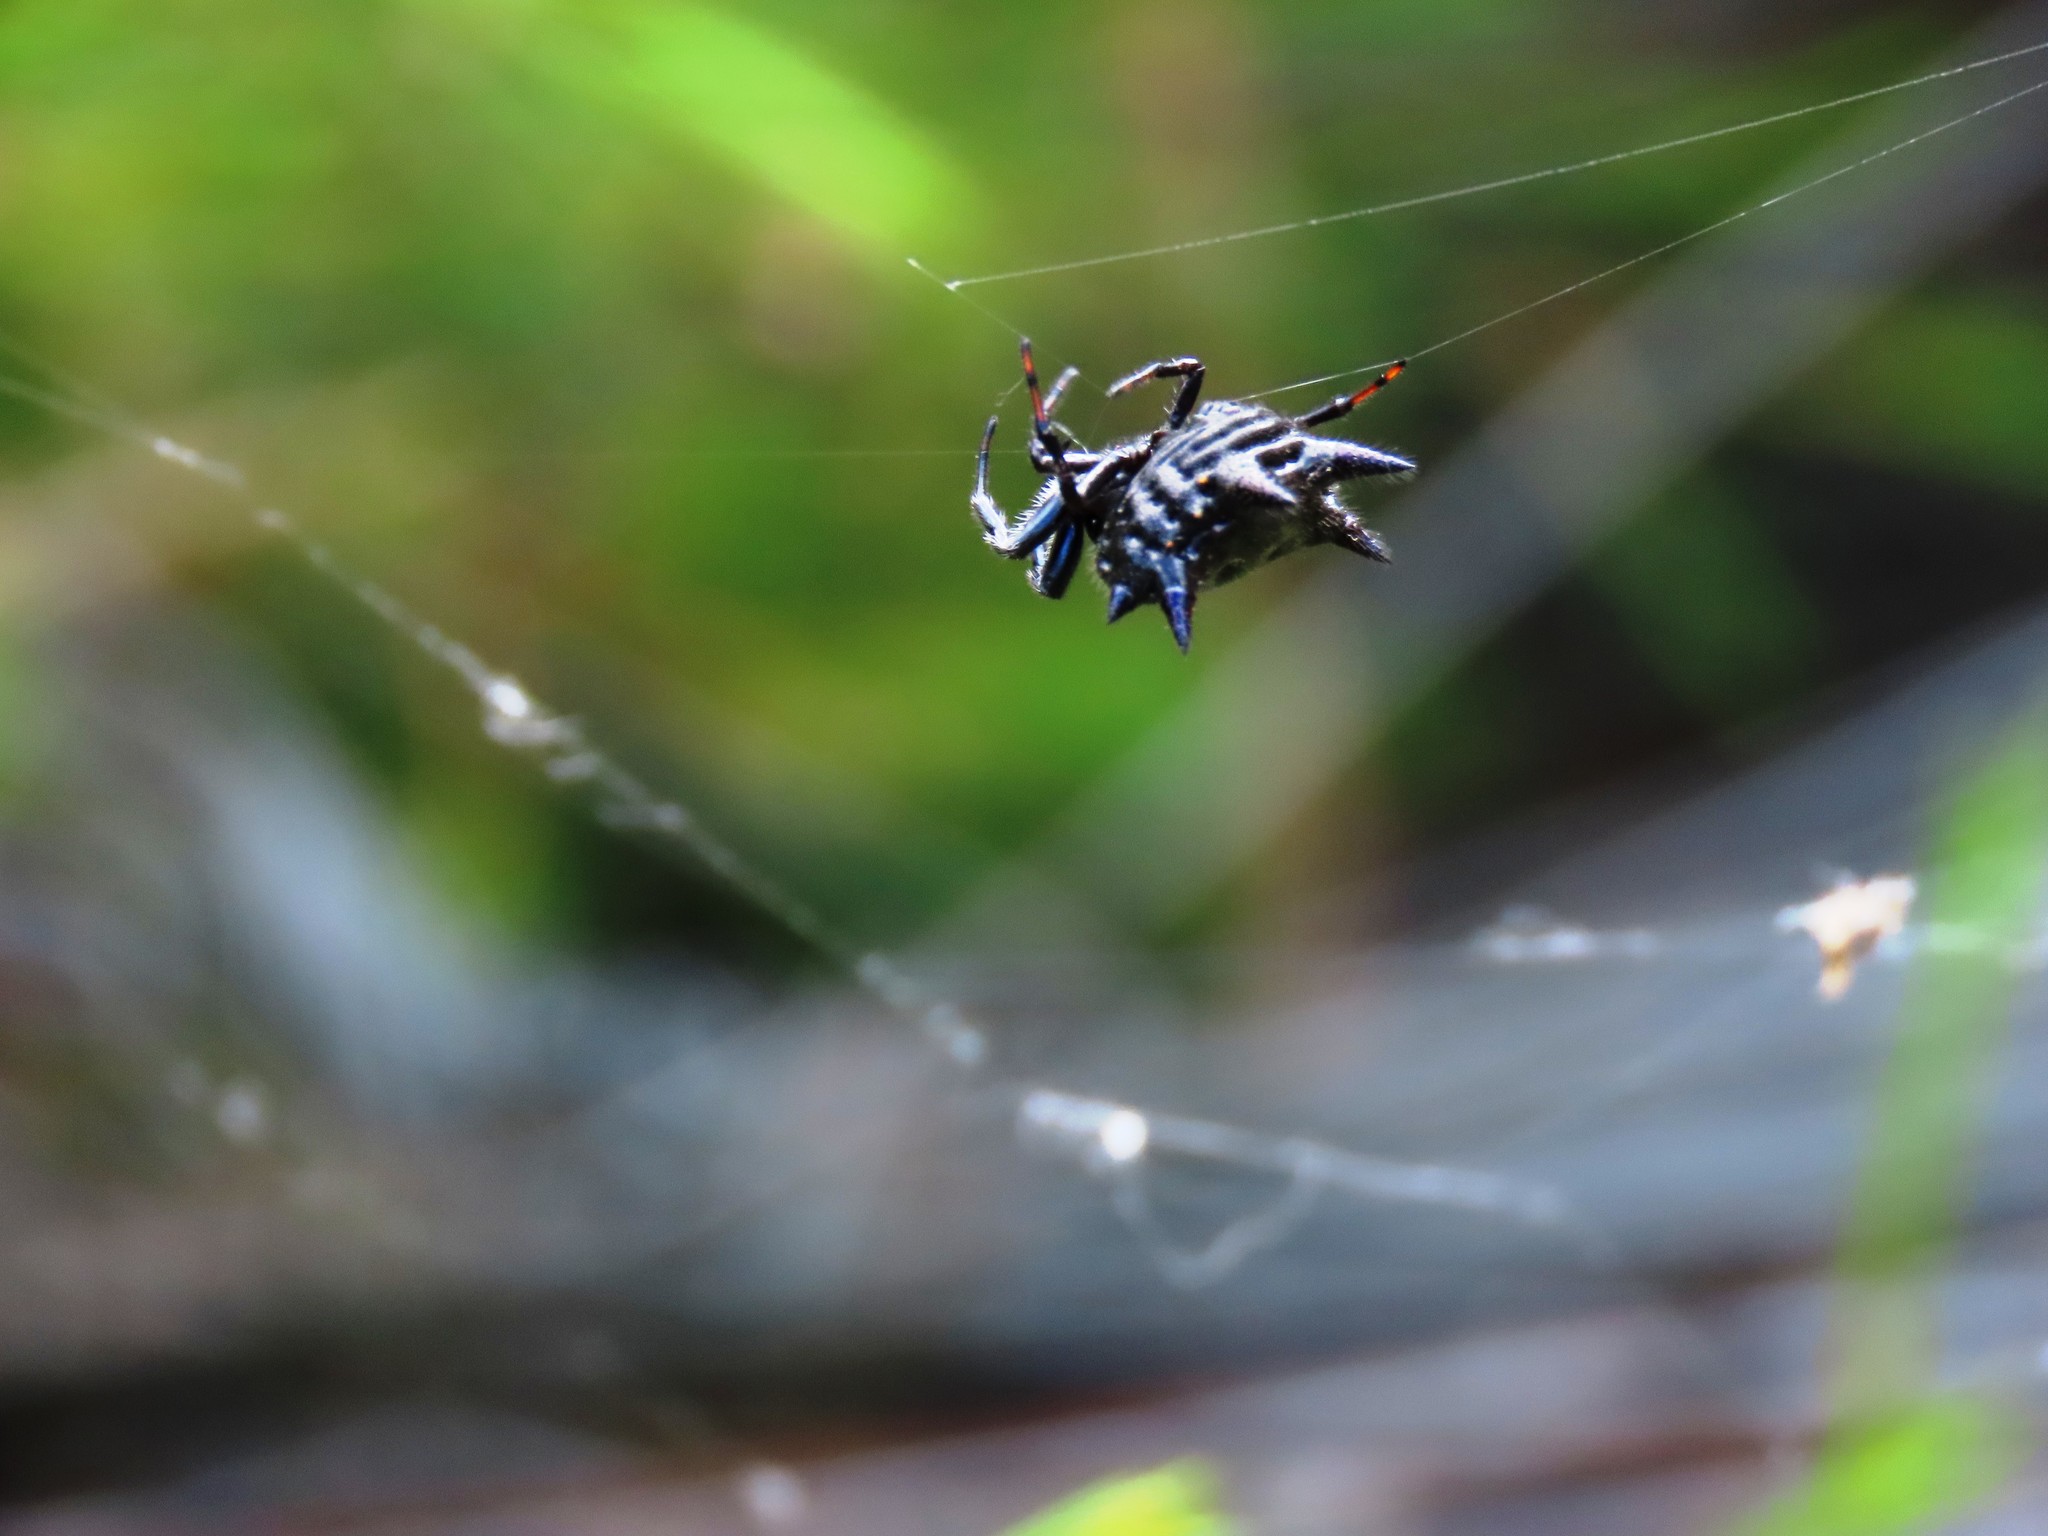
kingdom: Animalia
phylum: Arthropoda
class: Arachnida
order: Araneae
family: Araneidae
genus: Austracantha
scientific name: Austracantha minax
